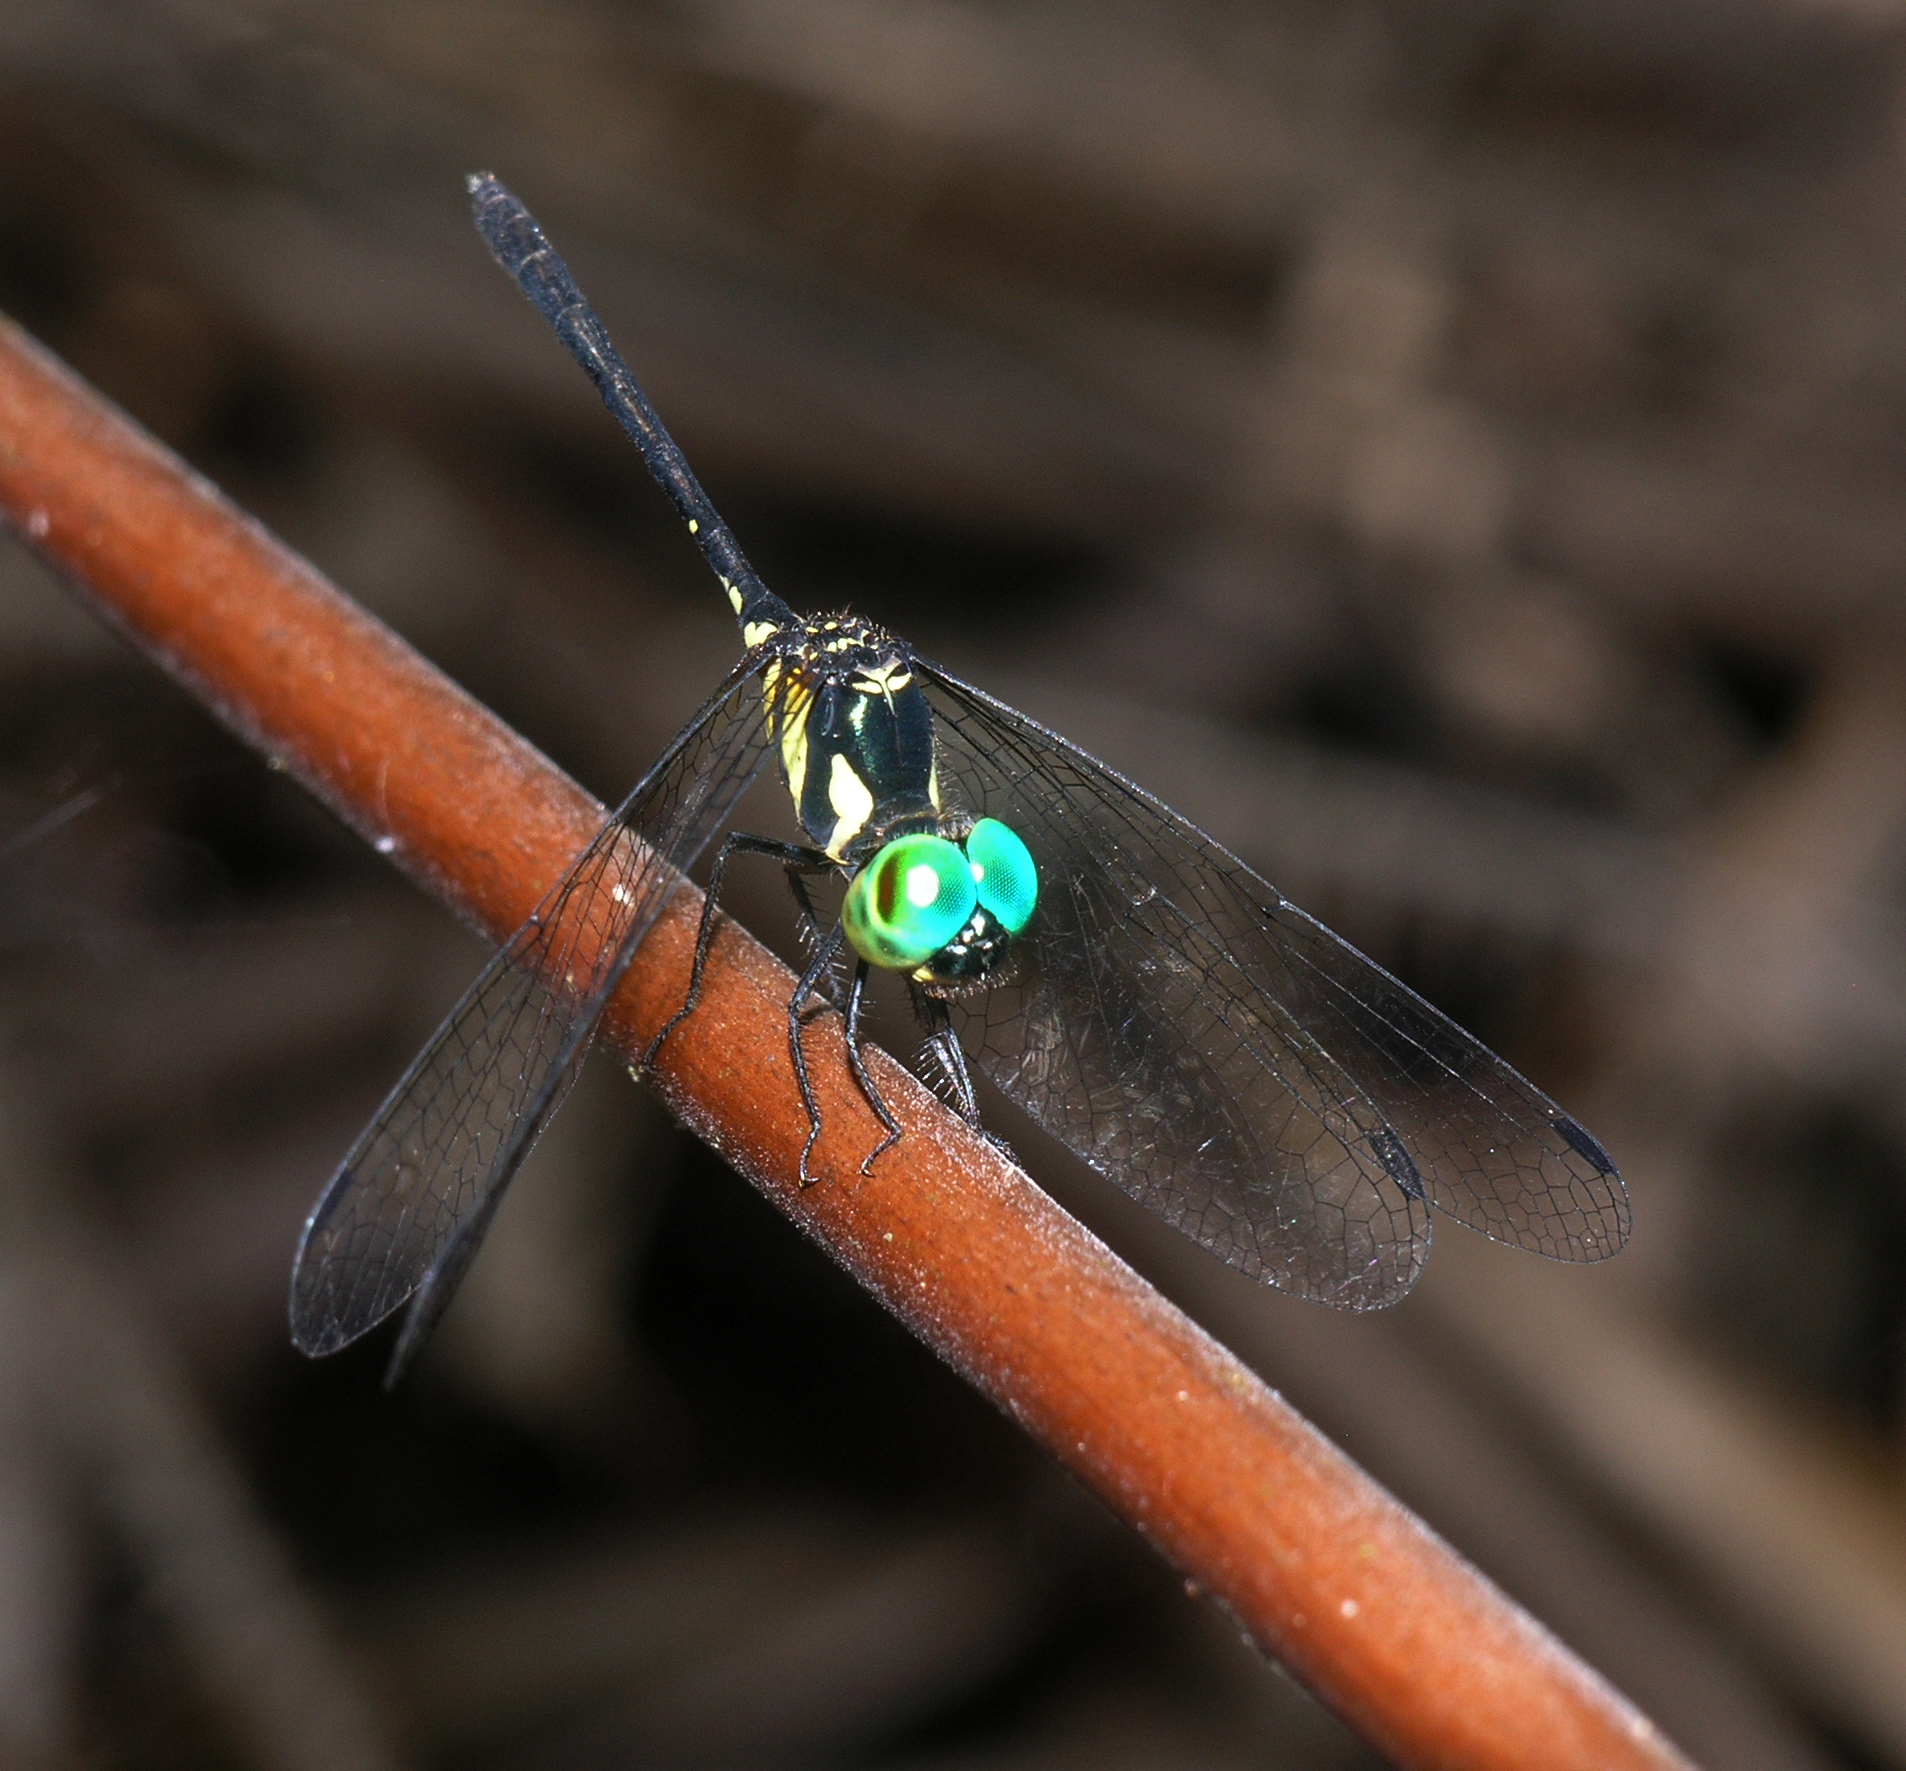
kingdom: Animalia
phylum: Arthropoda
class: Insecta
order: Odonata
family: Libellulidae
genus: Tetrathemis
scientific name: Tetrathemis flavescens
